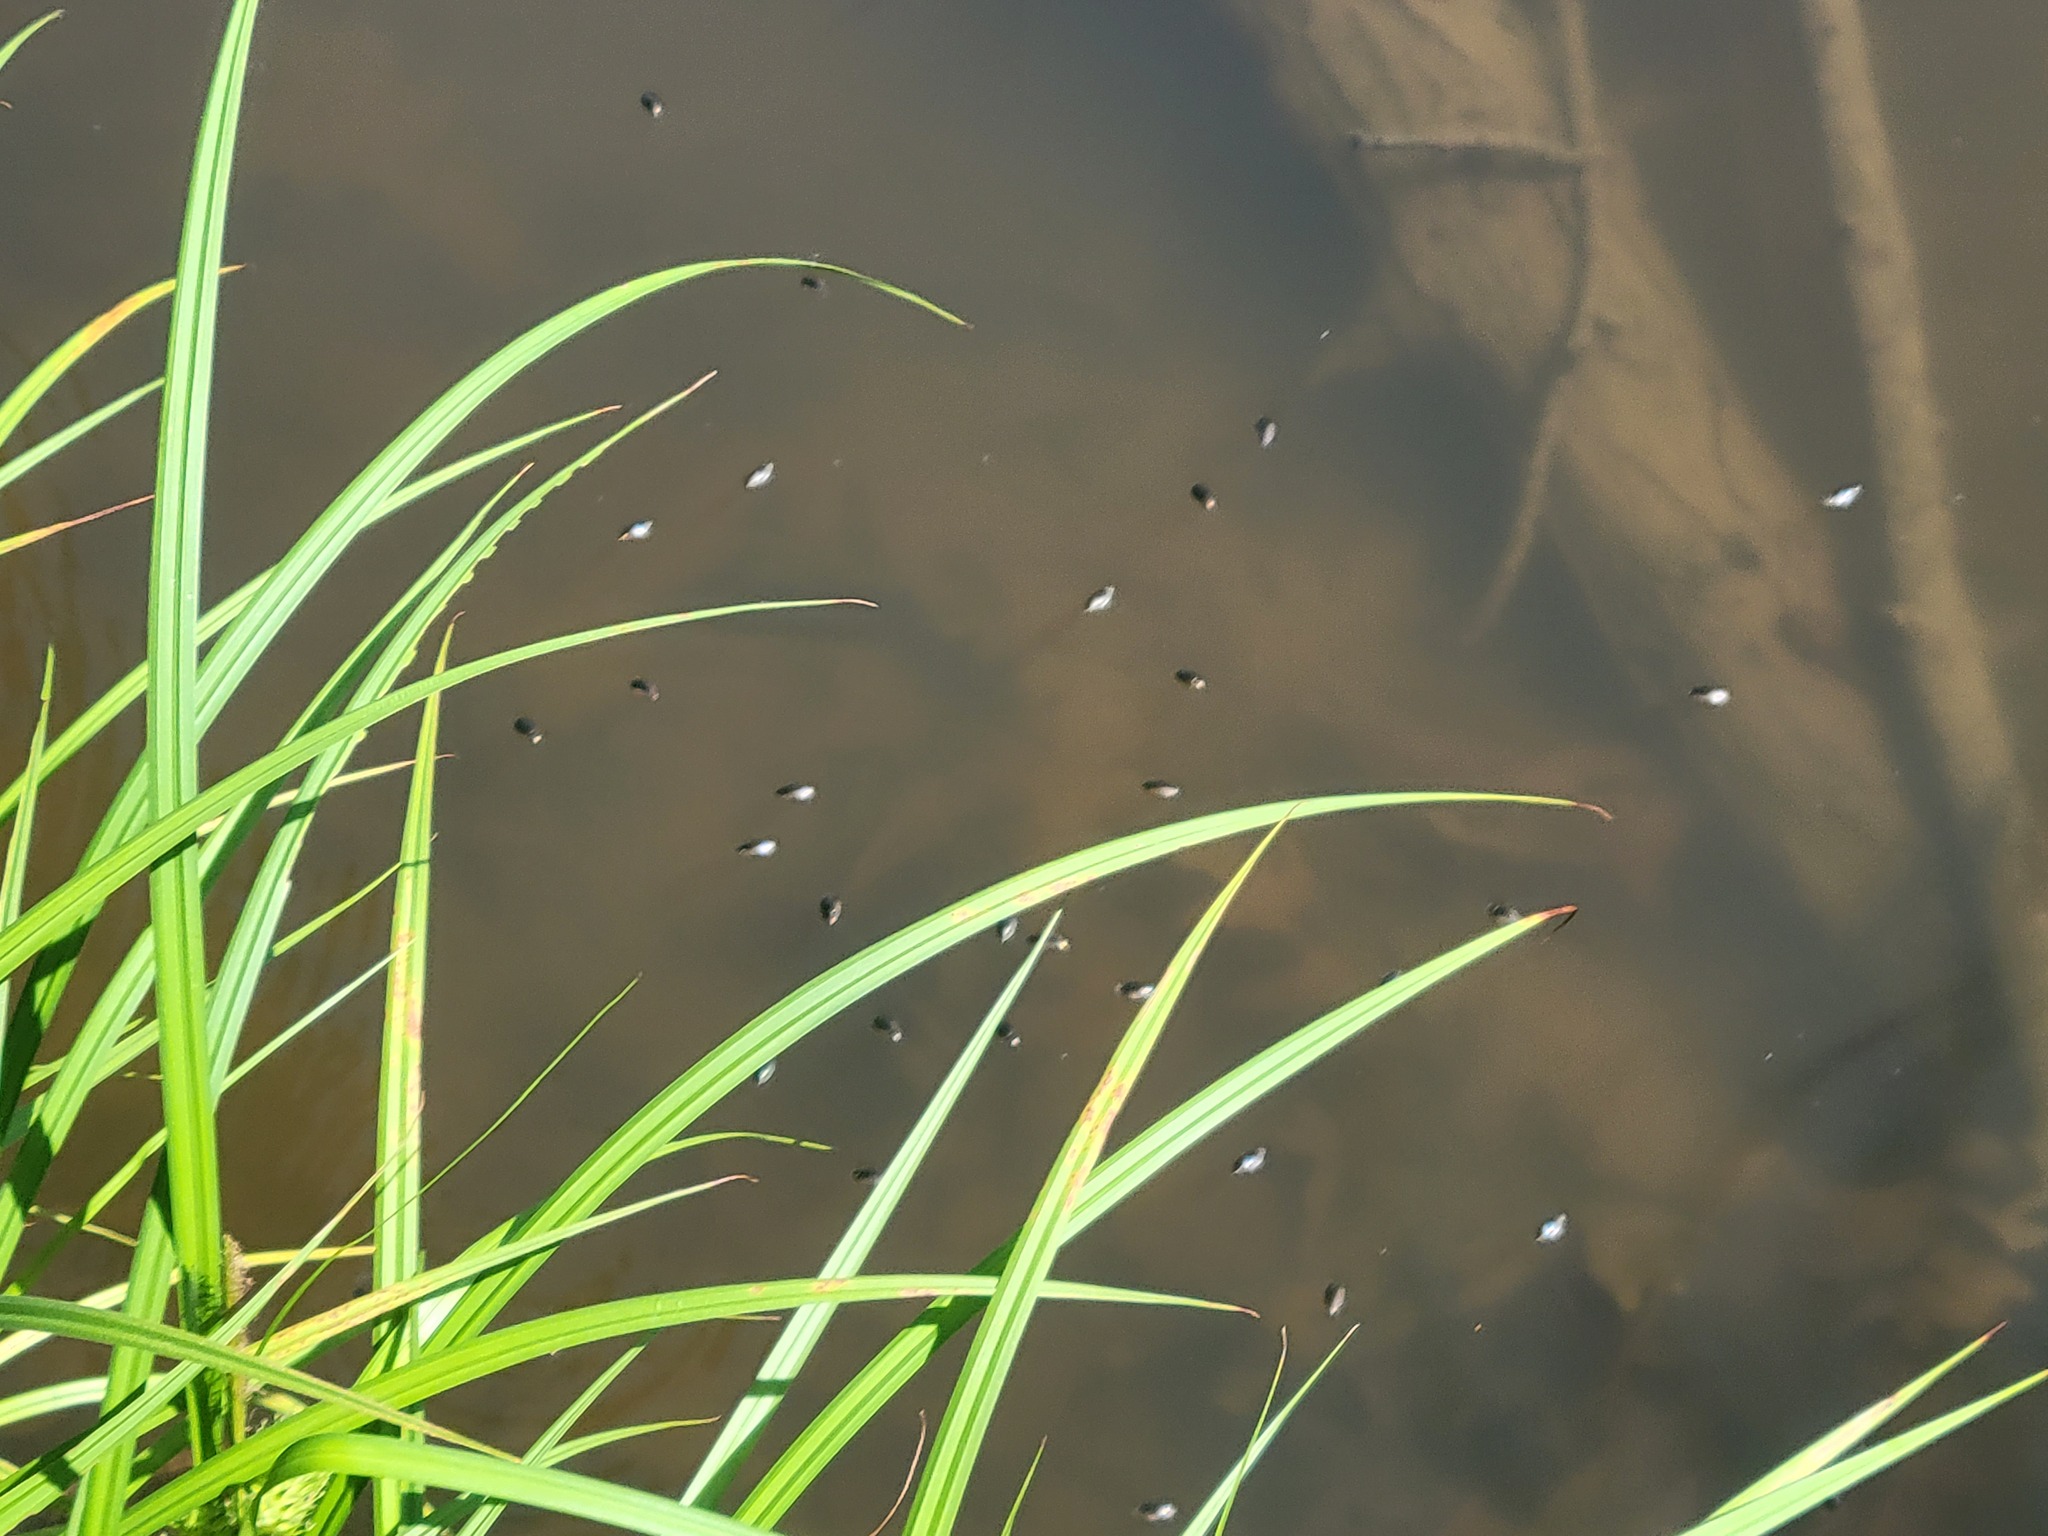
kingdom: Animalia
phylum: Arthropoda
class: Insecta
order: Coleoptera
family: Gyrinidae
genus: Dineutus
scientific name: Dineutus
